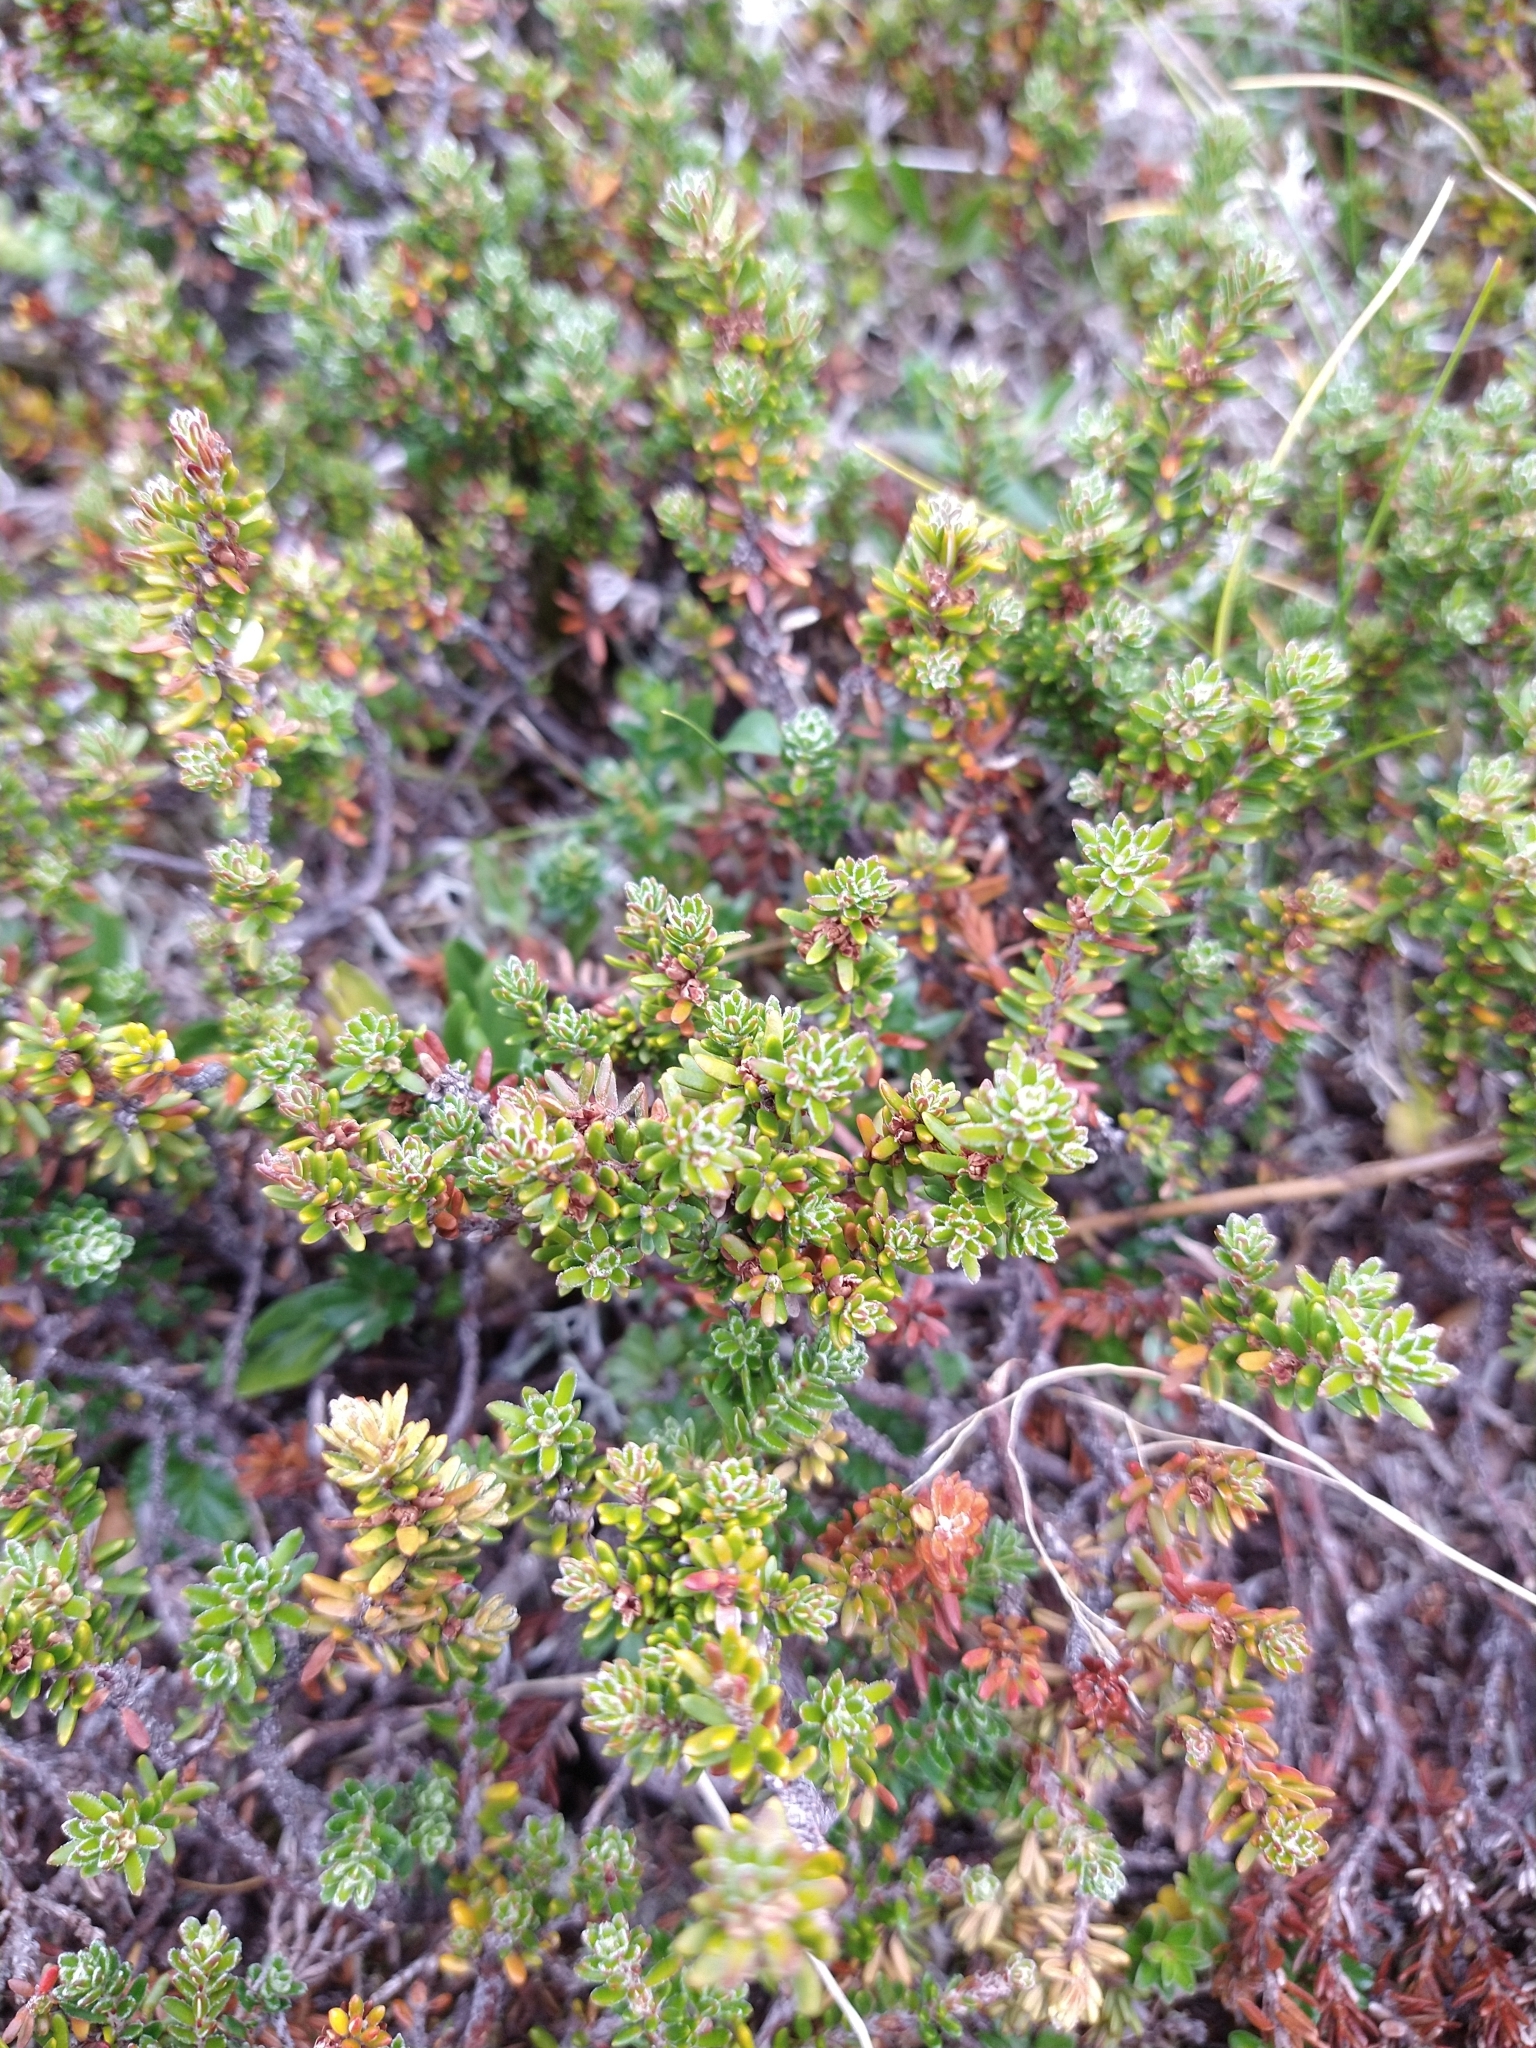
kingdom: Plantae
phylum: Tracheophyta
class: Magnoliopsida
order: Ericales
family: Ericaceae
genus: Empetrum
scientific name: Empetrum rubrum
